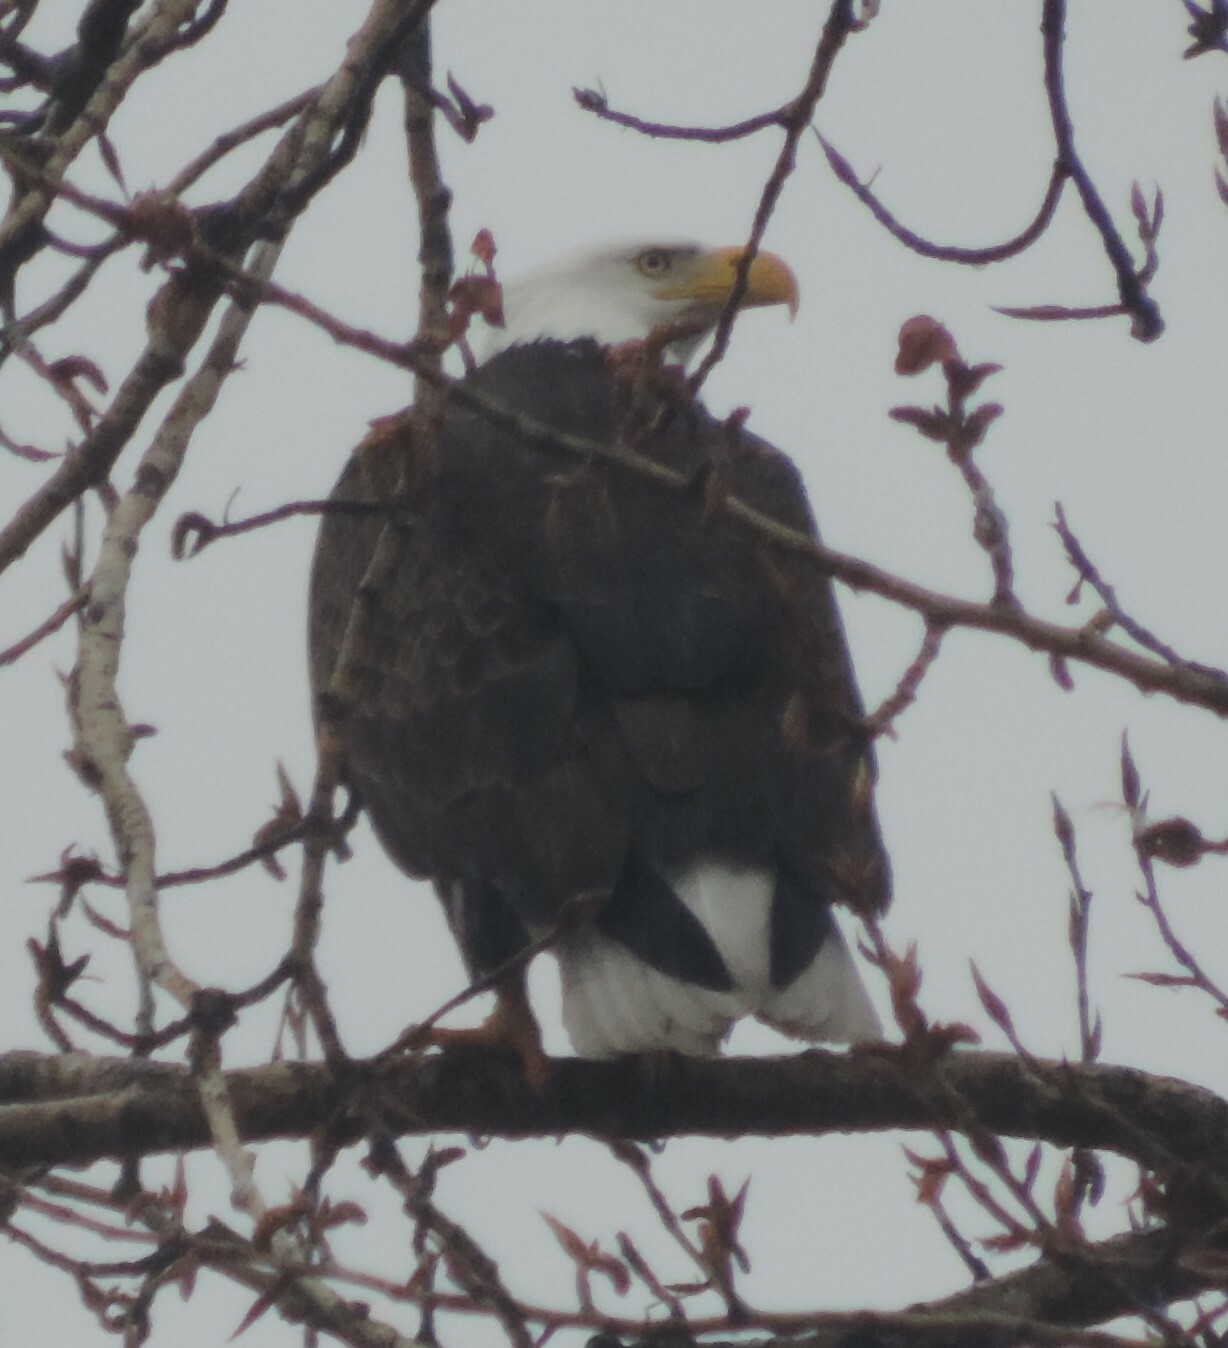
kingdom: Animalia
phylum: Chordata
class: Aves
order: Accipitriformes
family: Accipitridae
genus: Haliaeetus
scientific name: Haliaeetus leucocephalus
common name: Bald eagle
